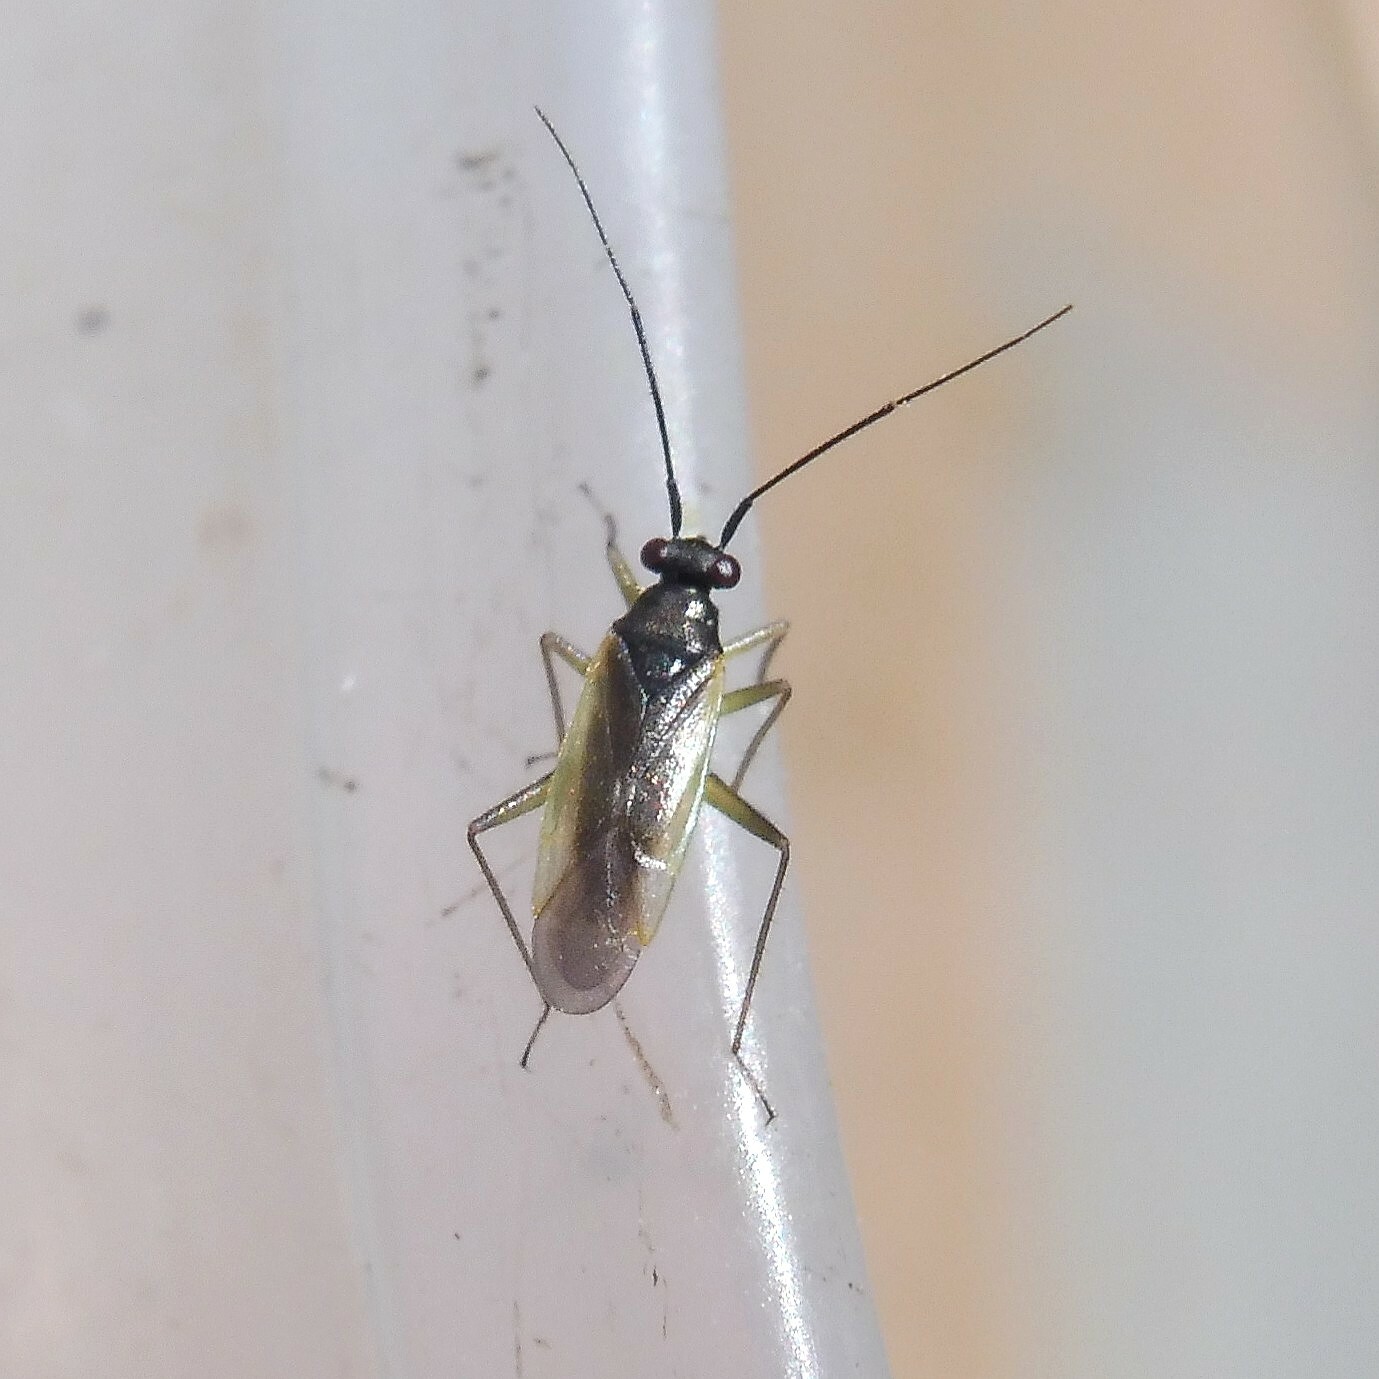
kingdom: Animalia
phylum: Arthropoda
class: Insecta
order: Hemiptera
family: Miridae
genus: Cyrtorhinus
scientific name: Cyrtorhinus caricis
